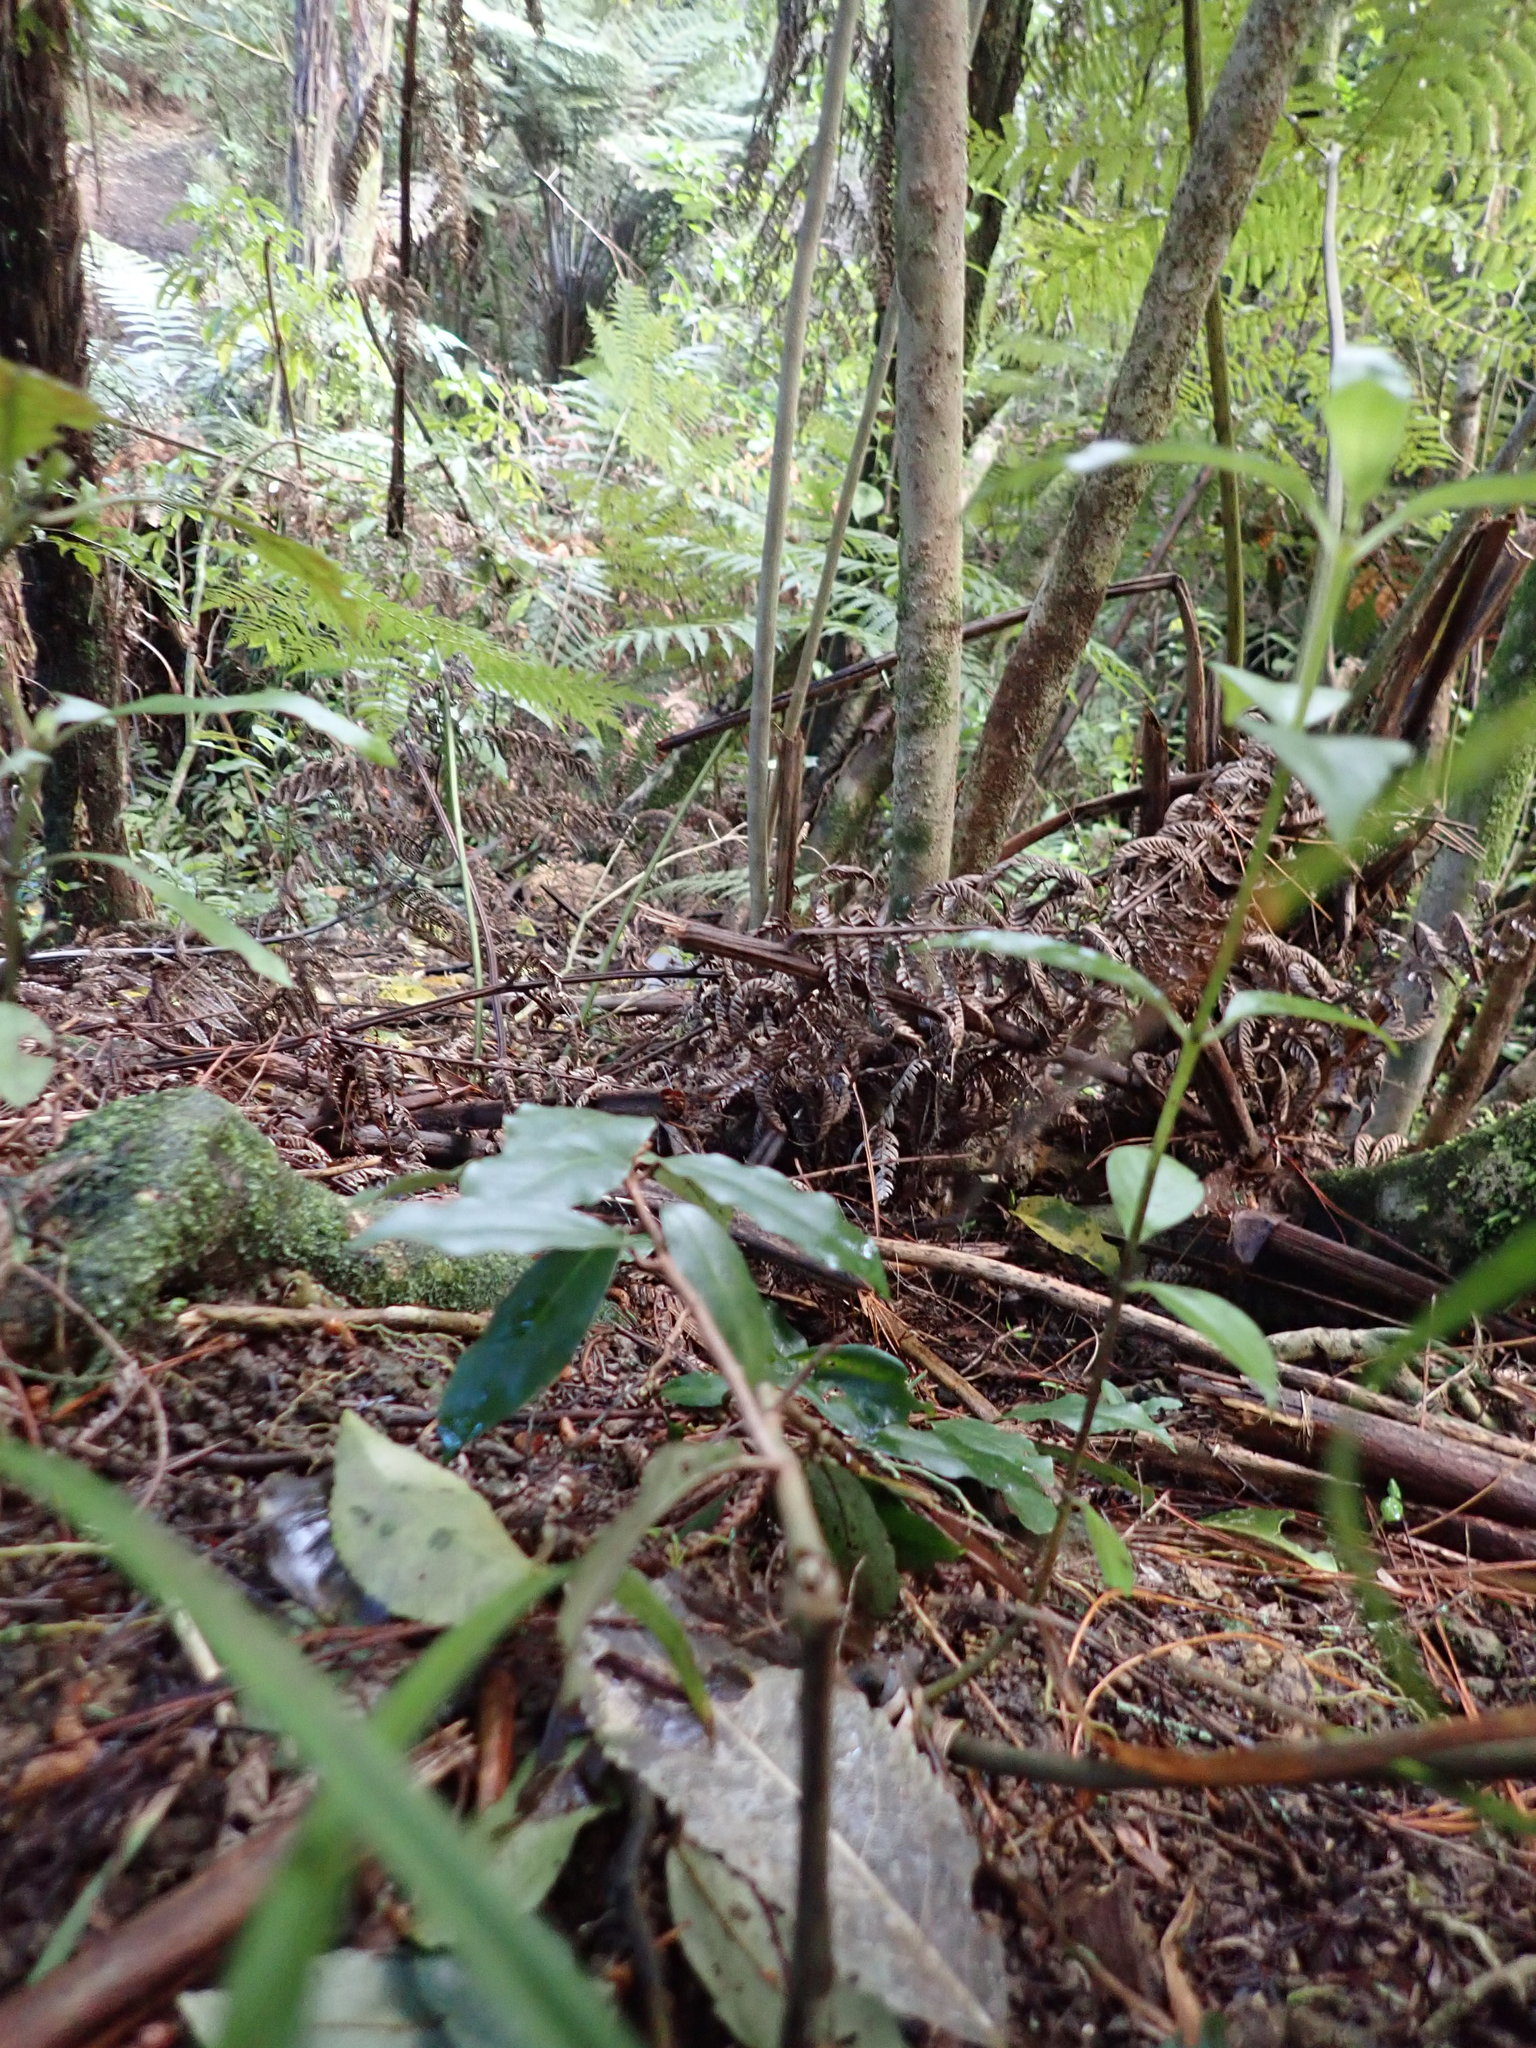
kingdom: Plantae
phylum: Tracheophyta
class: Magnoliopsida
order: Rosales
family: Elaeagnaceae
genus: Elaeagnus
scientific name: Elaeagnus reflexa
